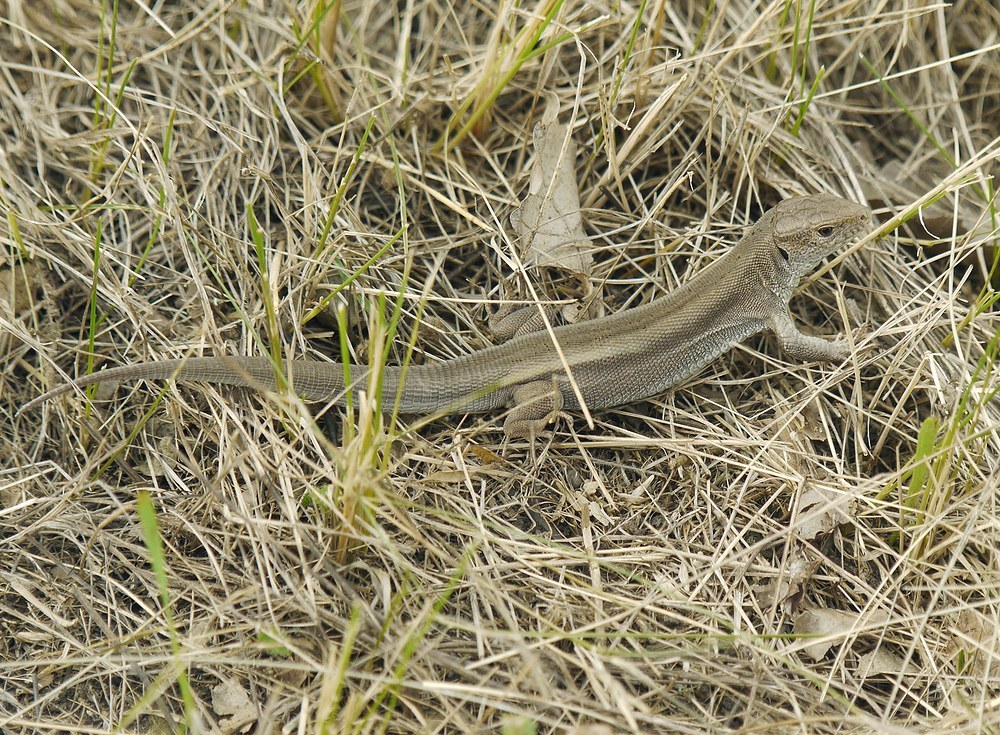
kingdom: Animalia
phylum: Chordata
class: Squamata
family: Lacertidae
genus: Lacerta
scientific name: Lacerta agilis
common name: Sand lizard
